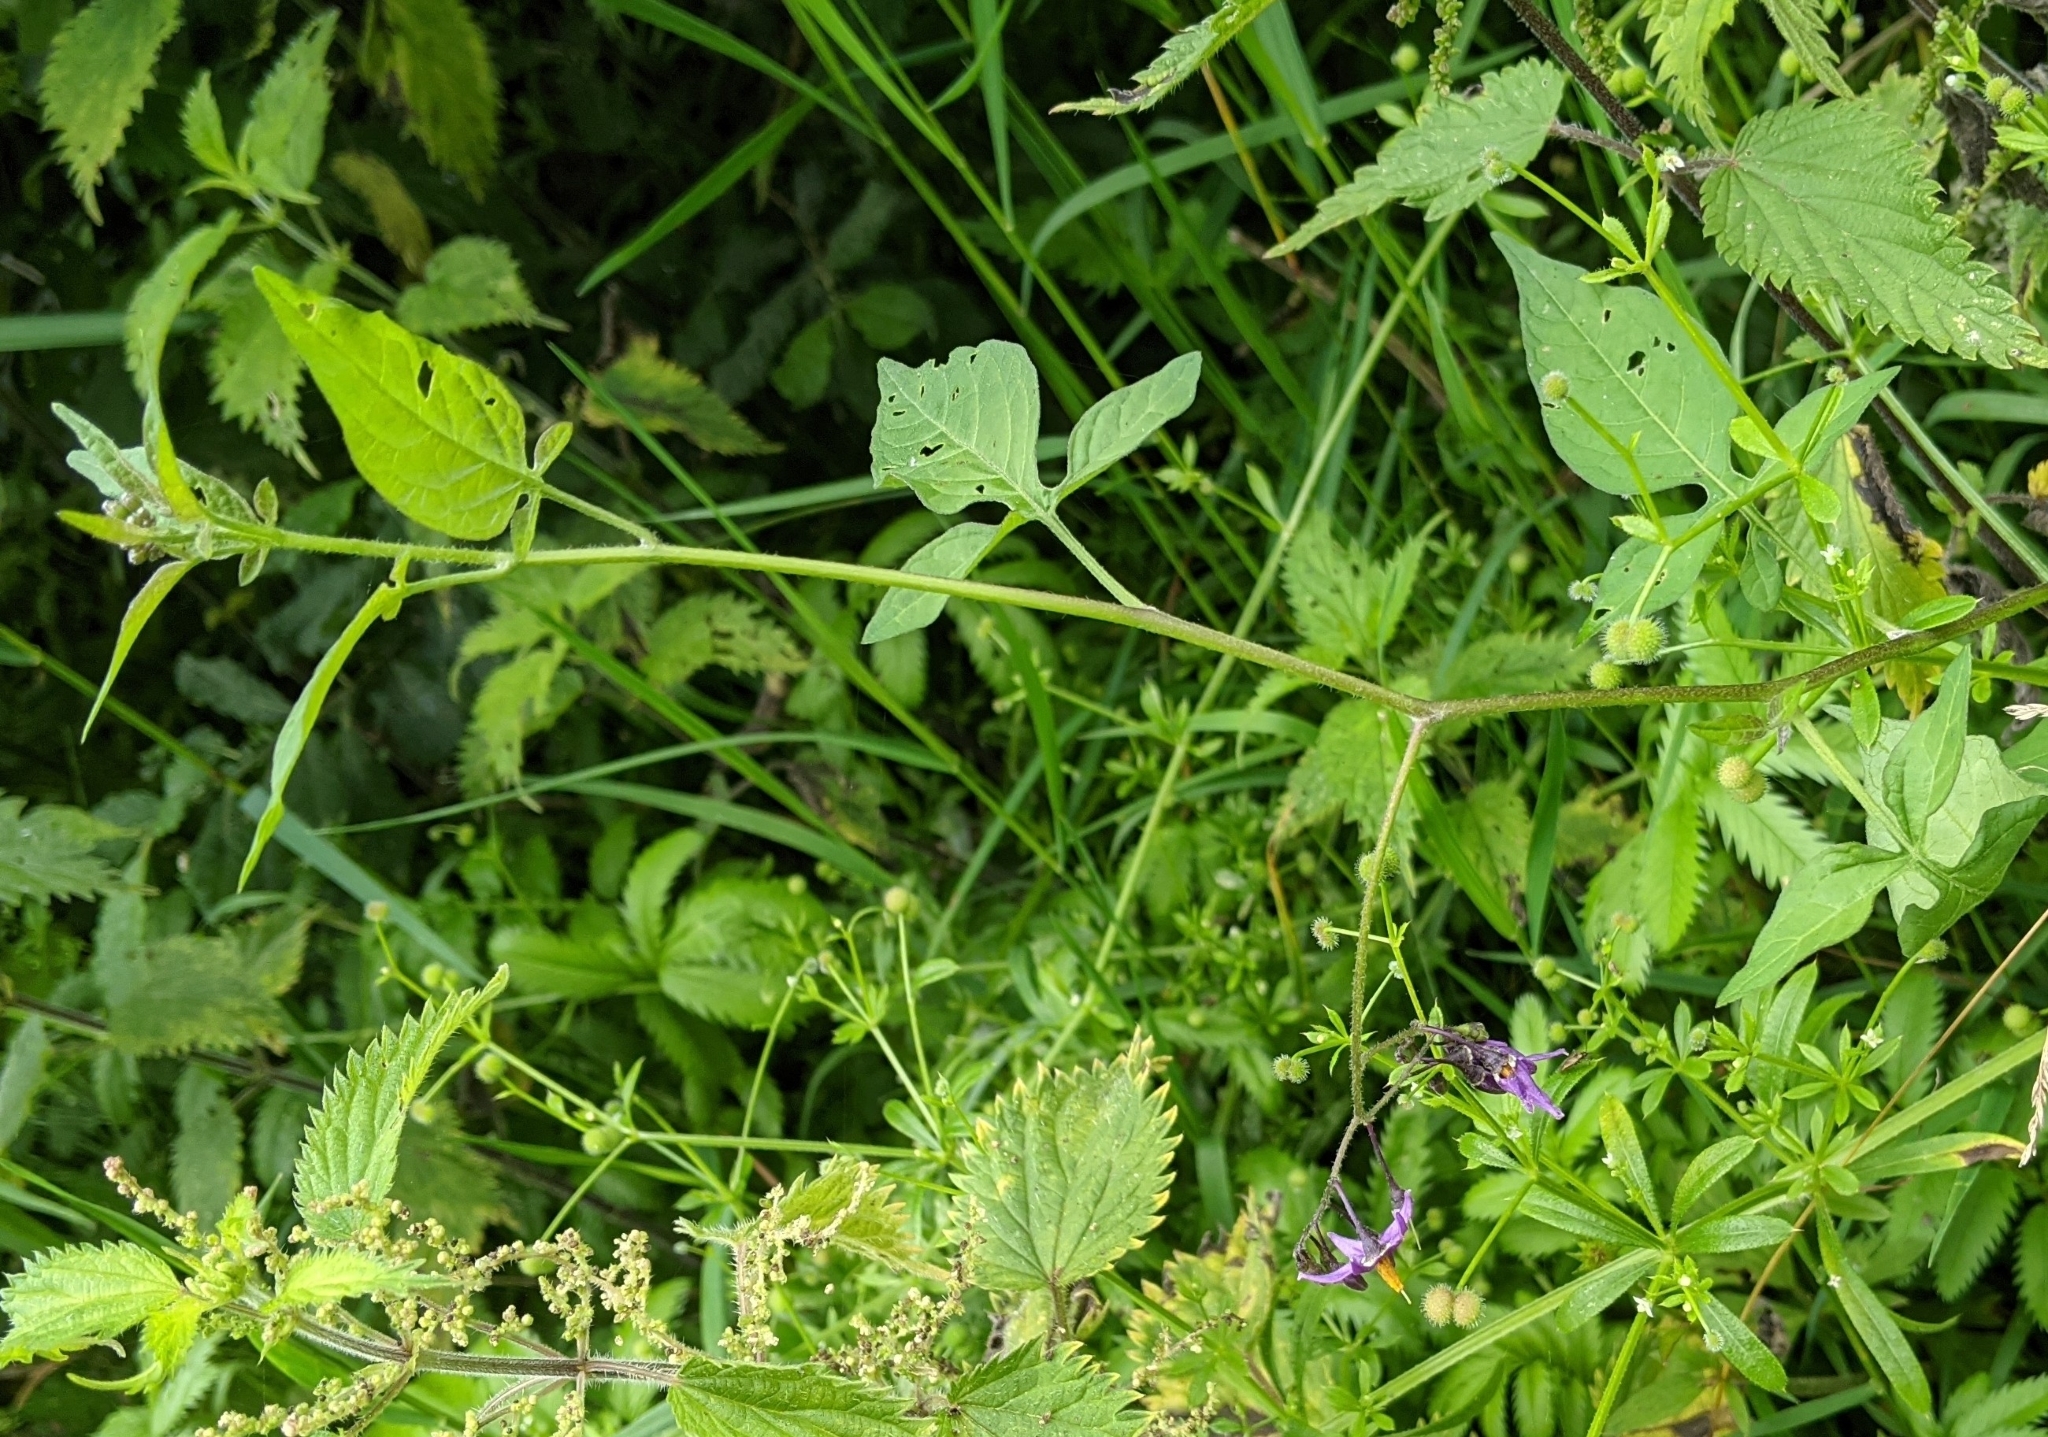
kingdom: Plantae
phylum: Tracheophyta
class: Magnoliopsida
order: Solanales
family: Solanaceae
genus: Solanum
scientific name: Solanum dulcamara
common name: Climbing nightshade
